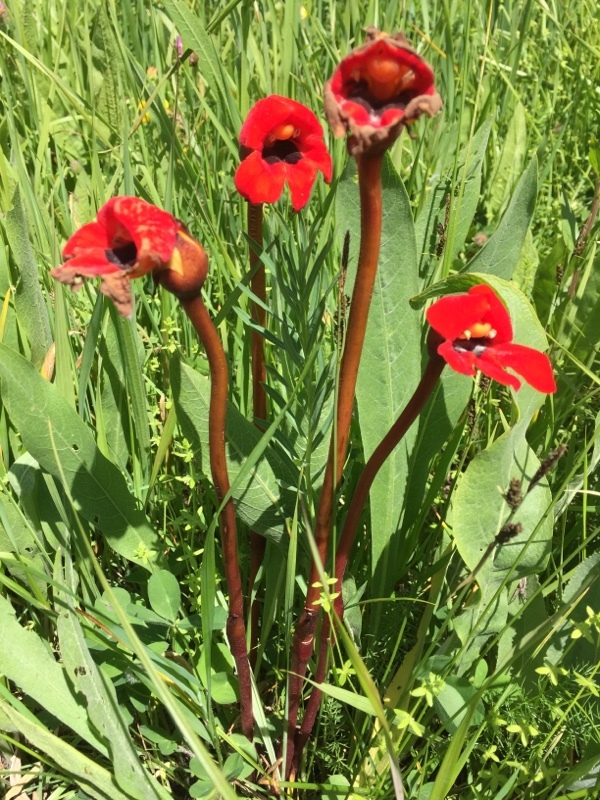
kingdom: Plantae
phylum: Tracheophyta
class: Magnoliopsida
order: Lamiales
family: Orobanchaceae
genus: Diphelypaea
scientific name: Diphelypaea coccinea
